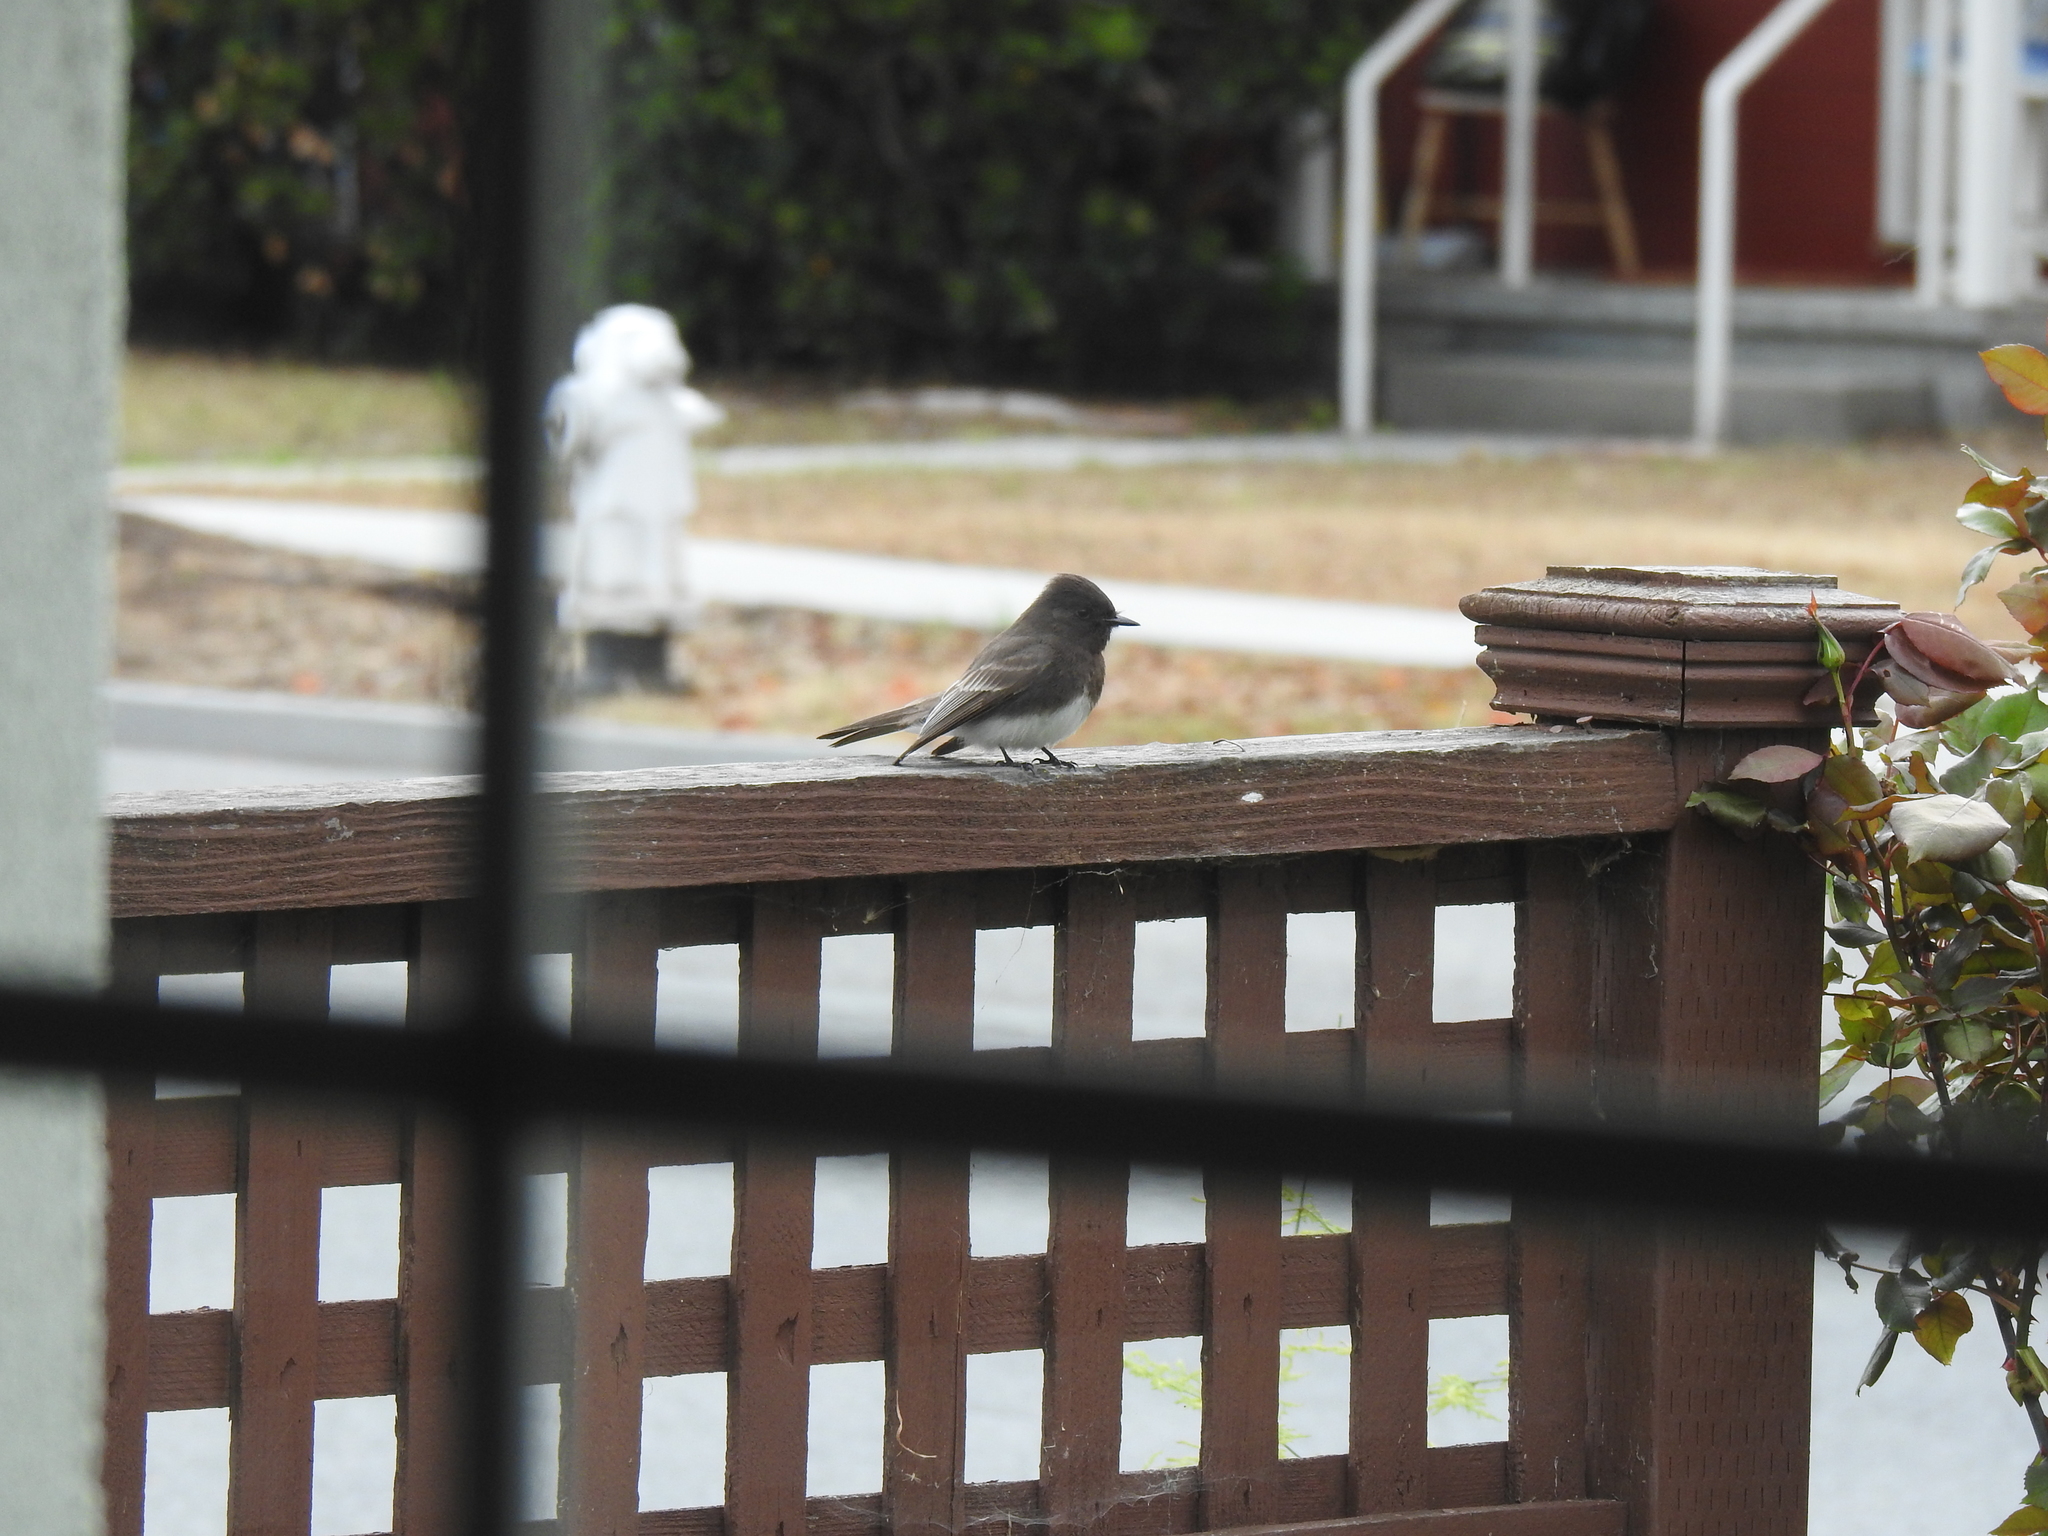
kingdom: Animalia
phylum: Chordata
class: Aves
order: Passeriformes
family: Tyrannidae
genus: Sayornis
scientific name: Sayornis nigricans
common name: Black phoebe
